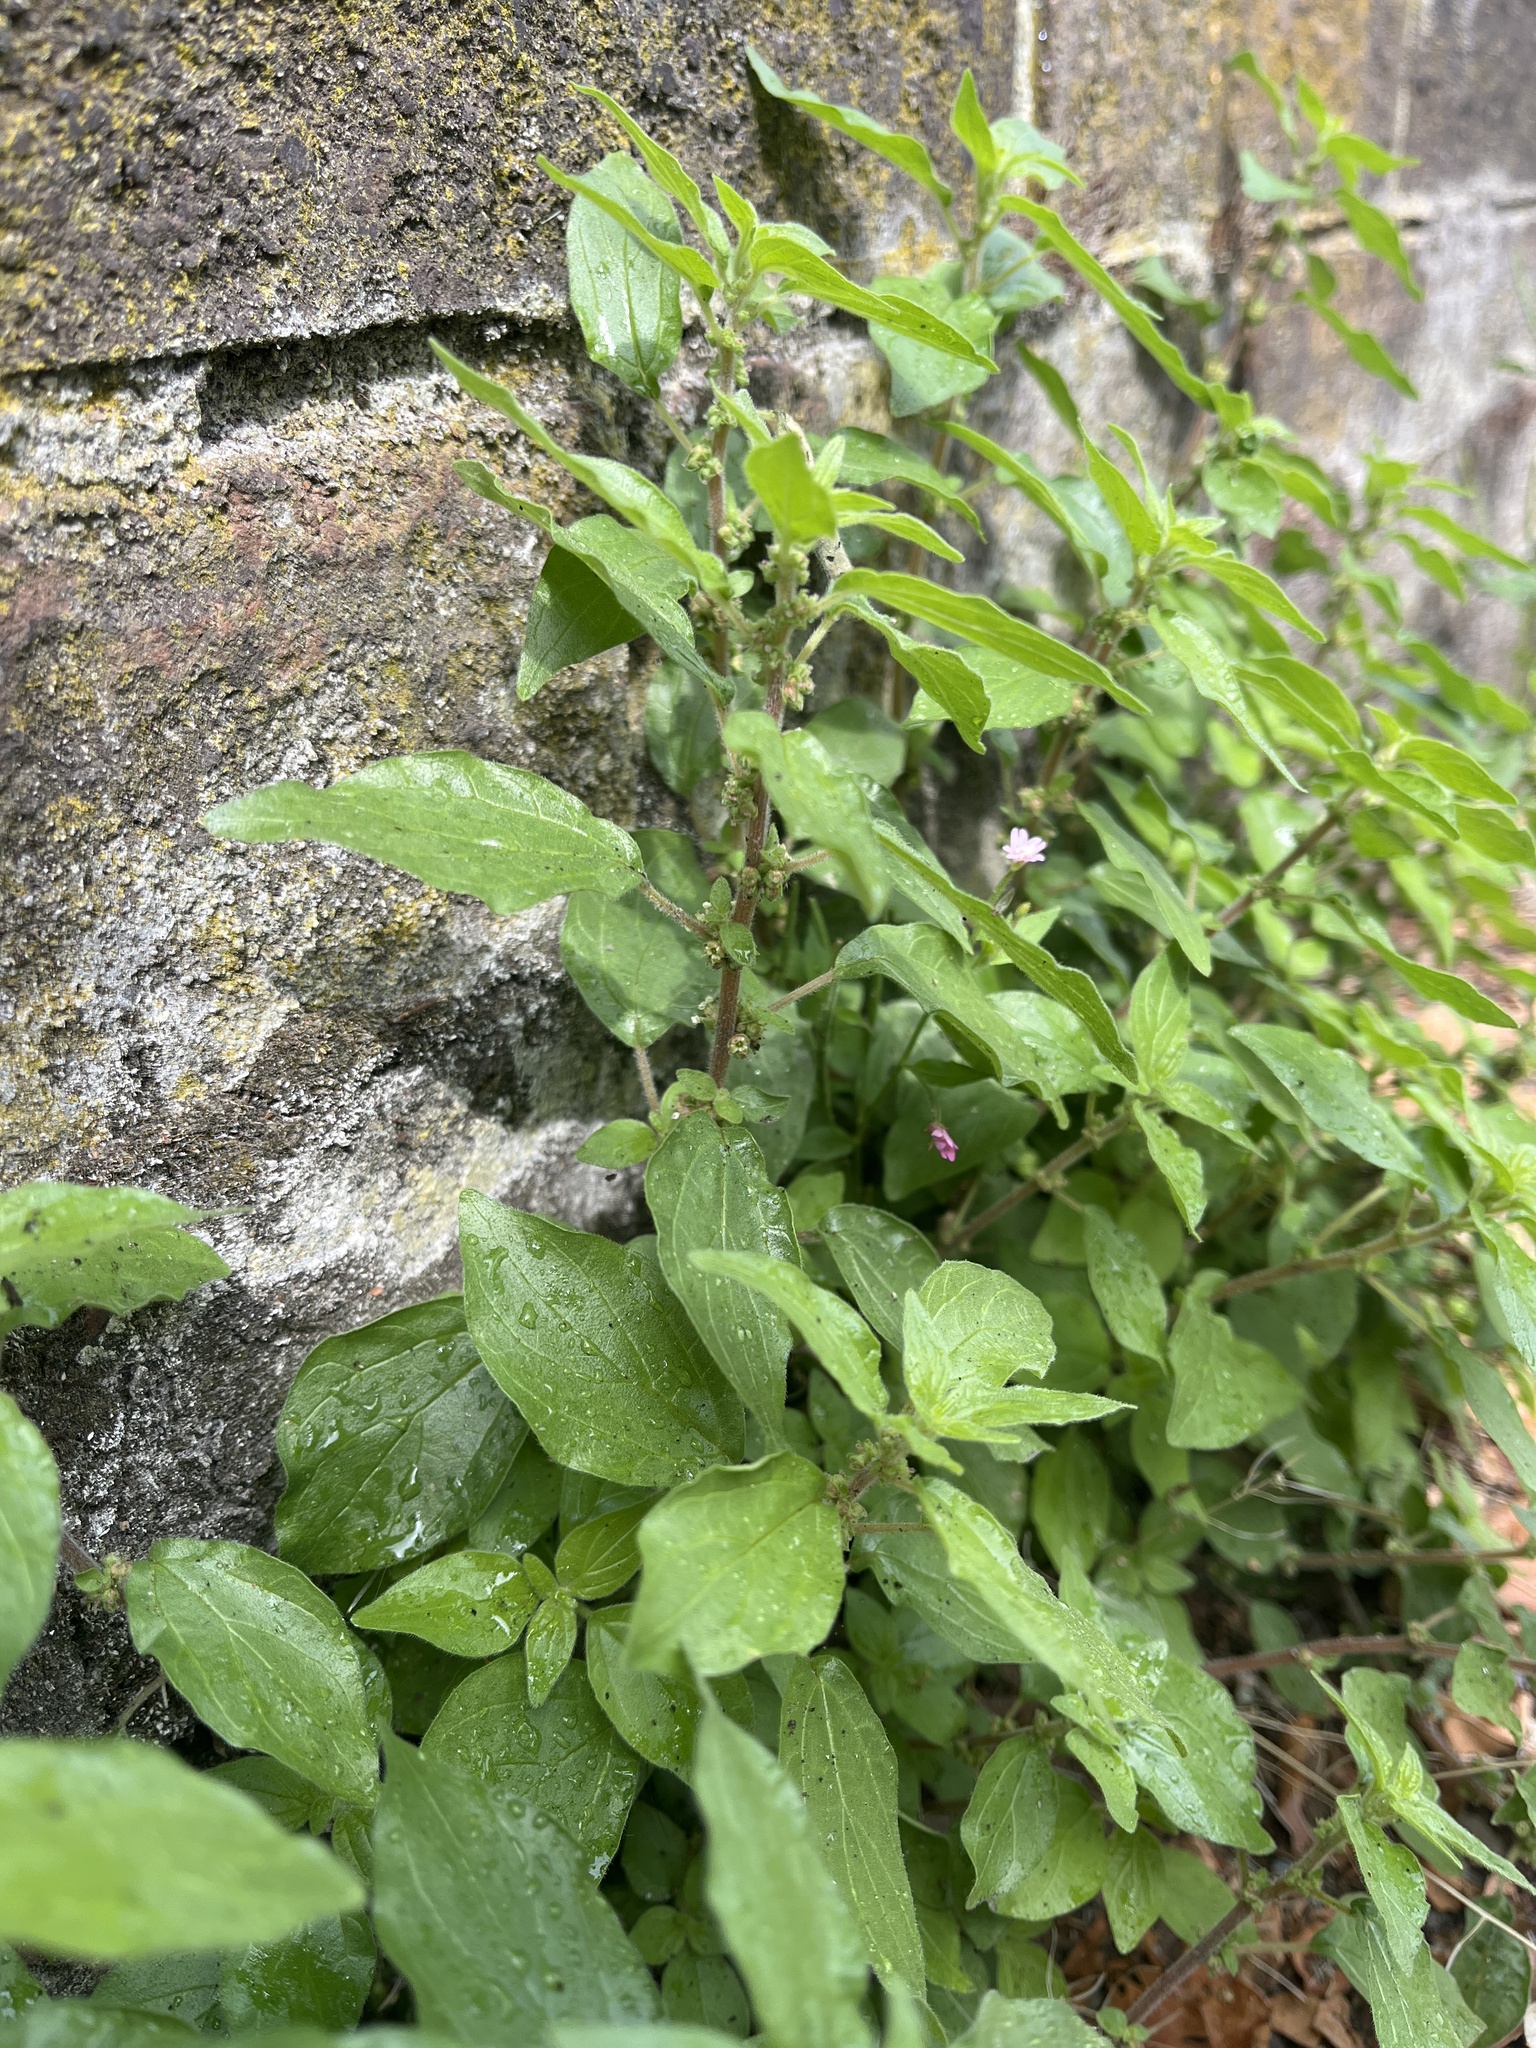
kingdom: Plantae
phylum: Tracheophyta
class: Magnoliopsida
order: Rosales
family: Urticaceae
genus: Parietaria
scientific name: Parietaria judaica
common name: Pellitory-of-the-wall
